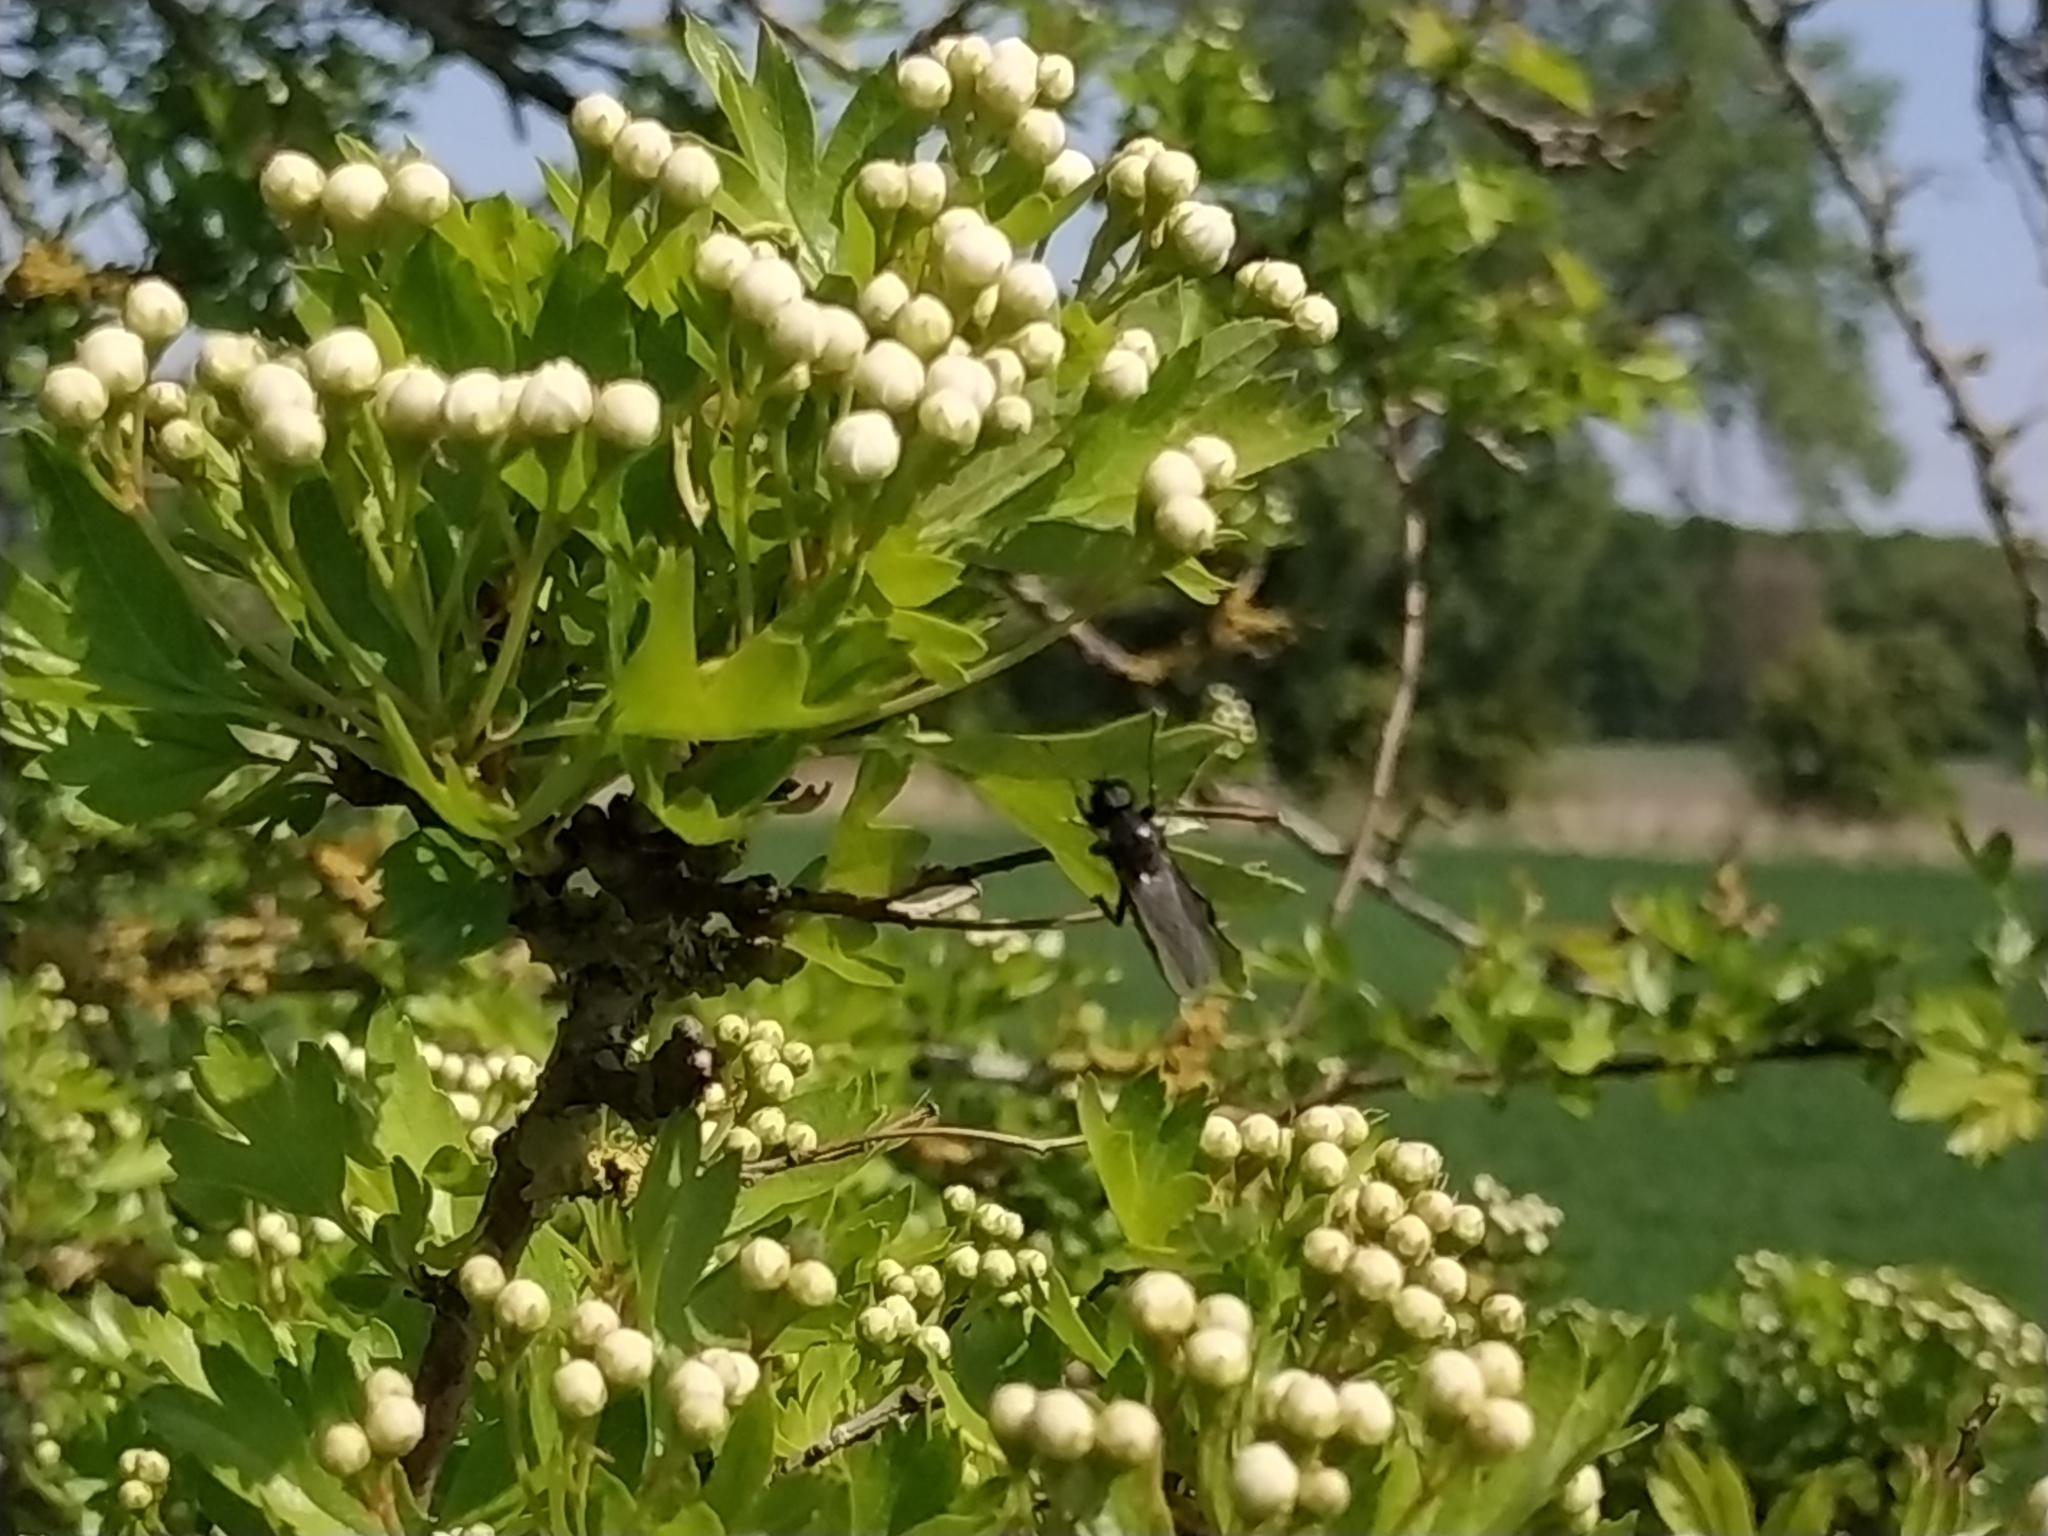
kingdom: Animalia
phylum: Arthropoda
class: Insecta
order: Diptera
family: Bibionidae
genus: Bibio
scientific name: Bibio marci
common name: St marks fly
